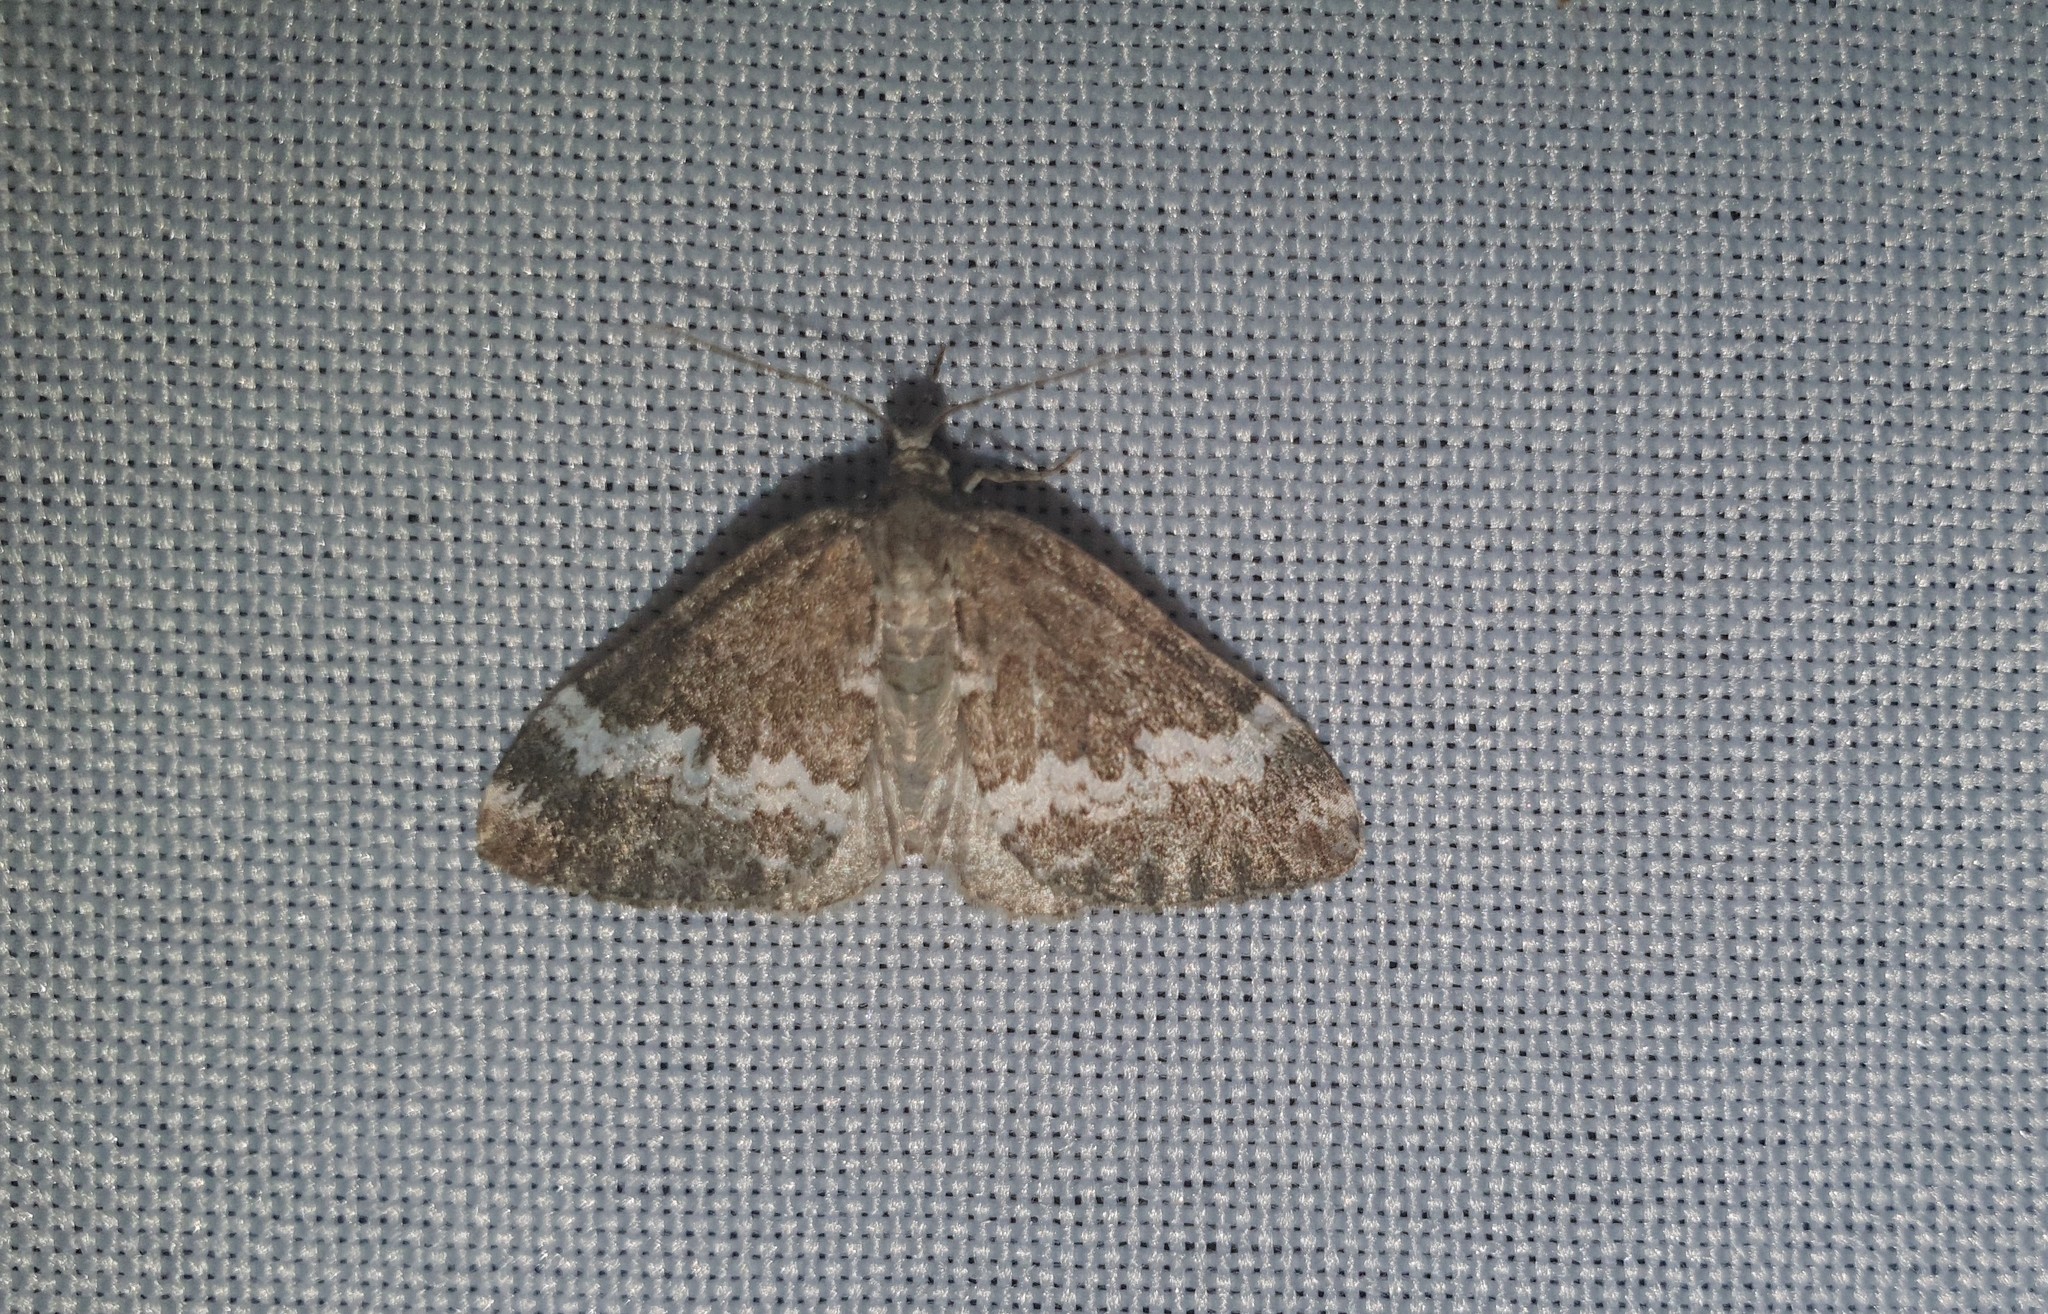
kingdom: Animalia
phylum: Arthropoda
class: Insecta
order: Lepidoptera
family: Geometridae
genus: Perizoma
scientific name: Perizoma alchemillata
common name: Small rivulet
